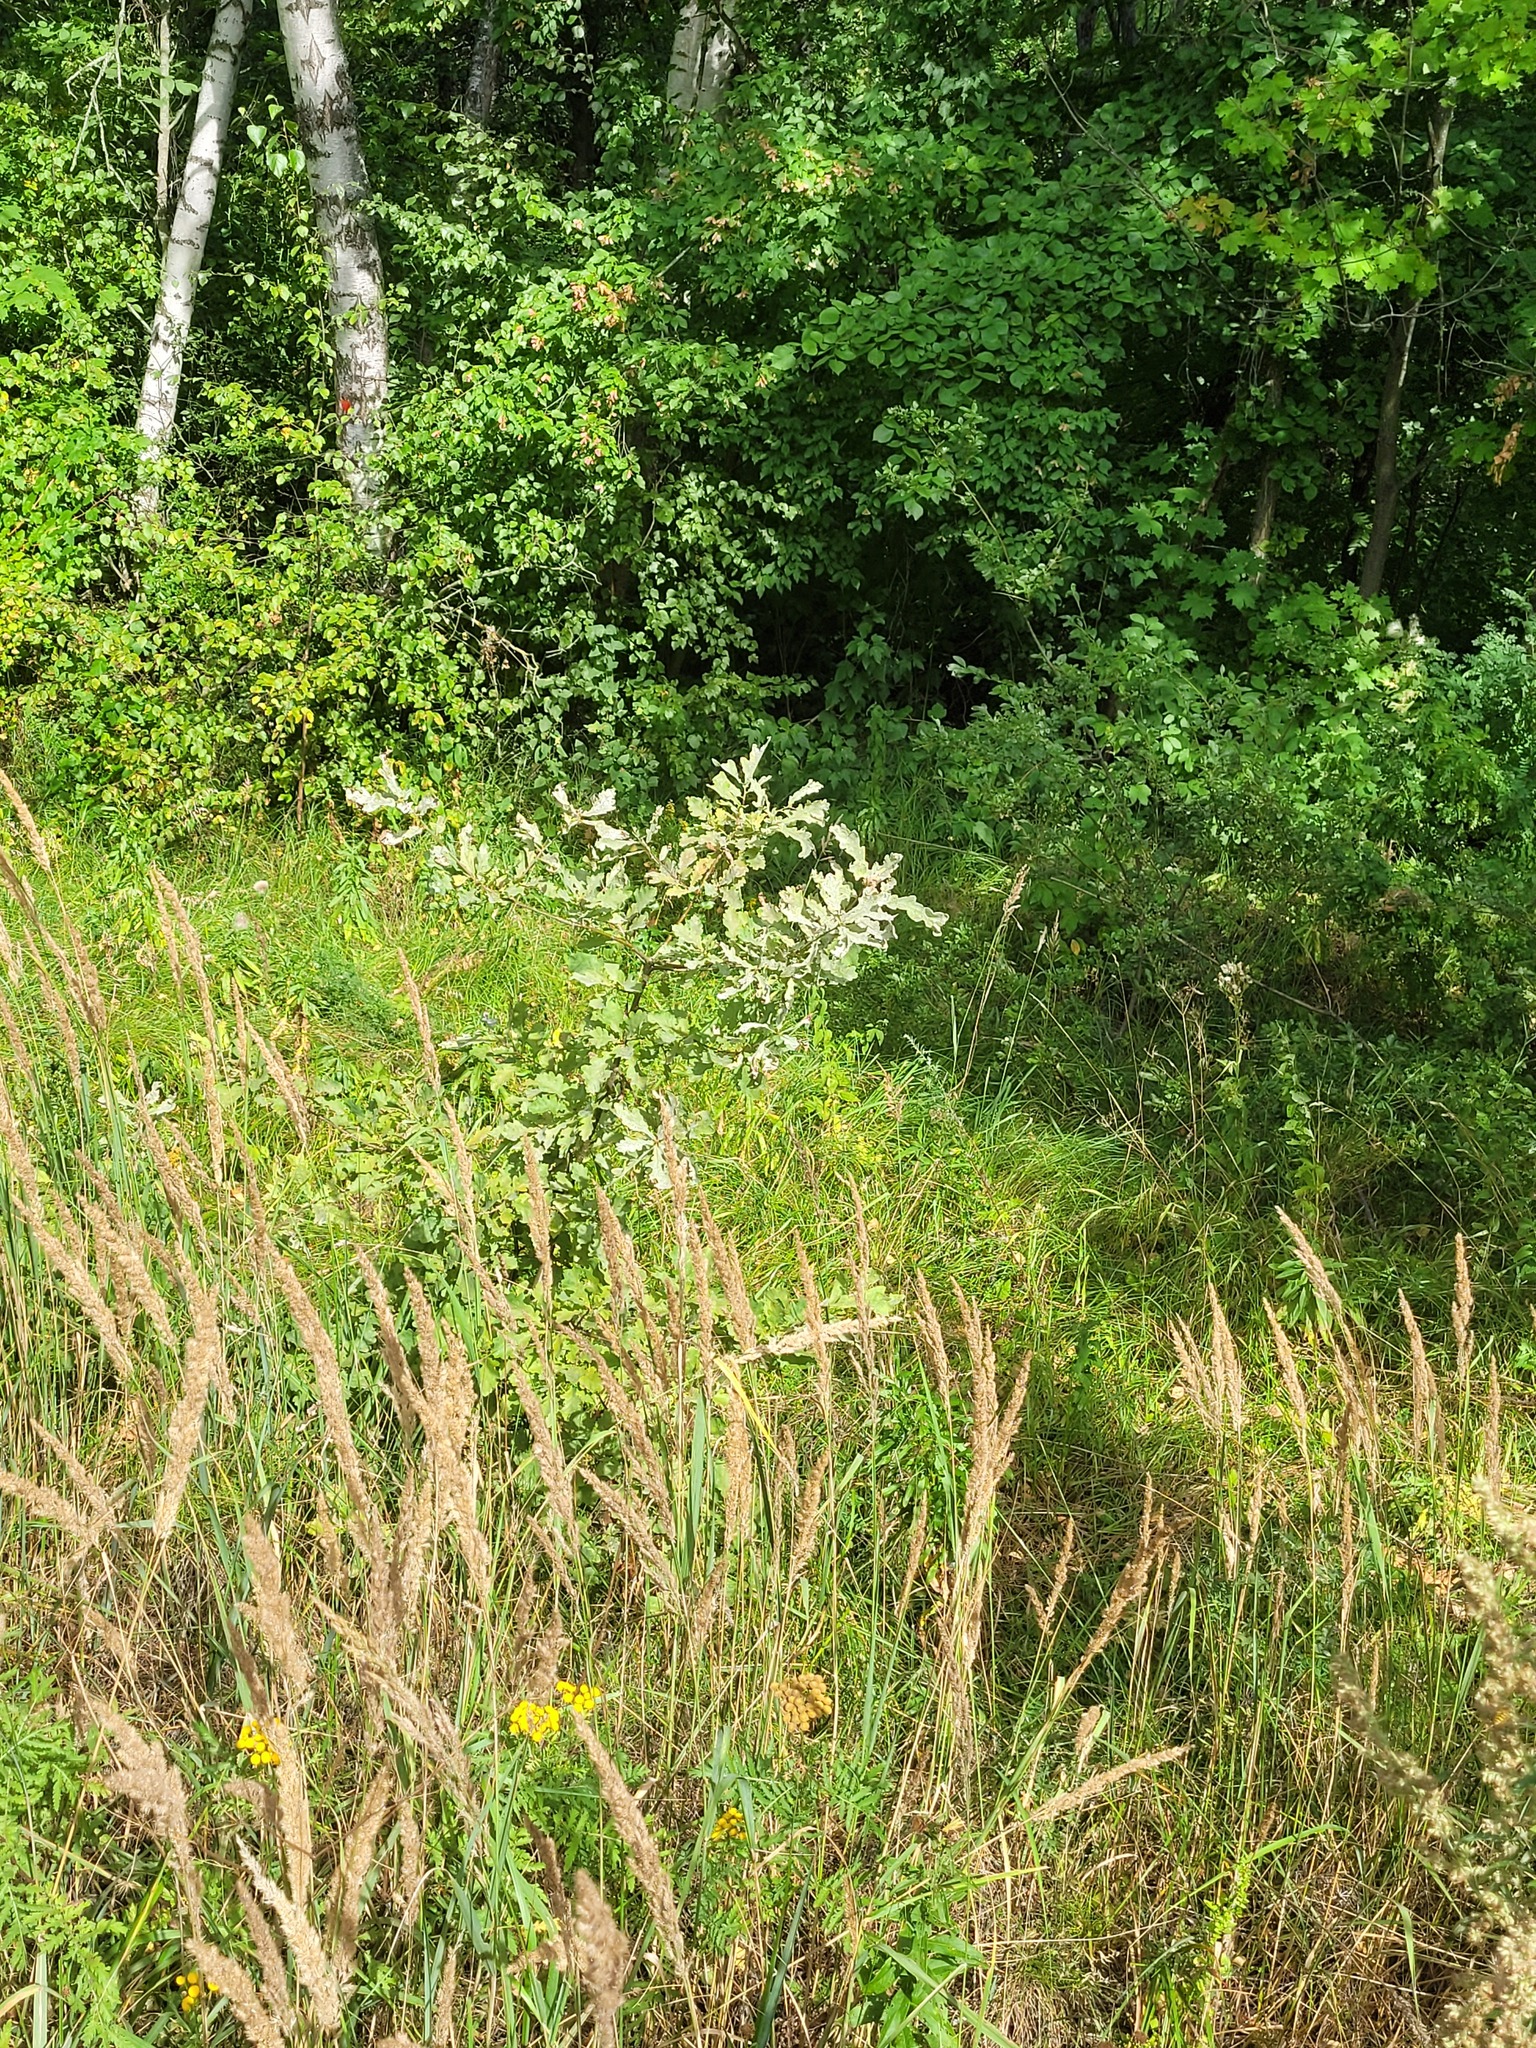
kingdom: Plantae
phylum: Tracheophyta
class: Magnoliopsida
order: Fagales
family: Fagaceae
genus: Quercus
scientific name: Quercus robur
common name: Pedunculate oak
